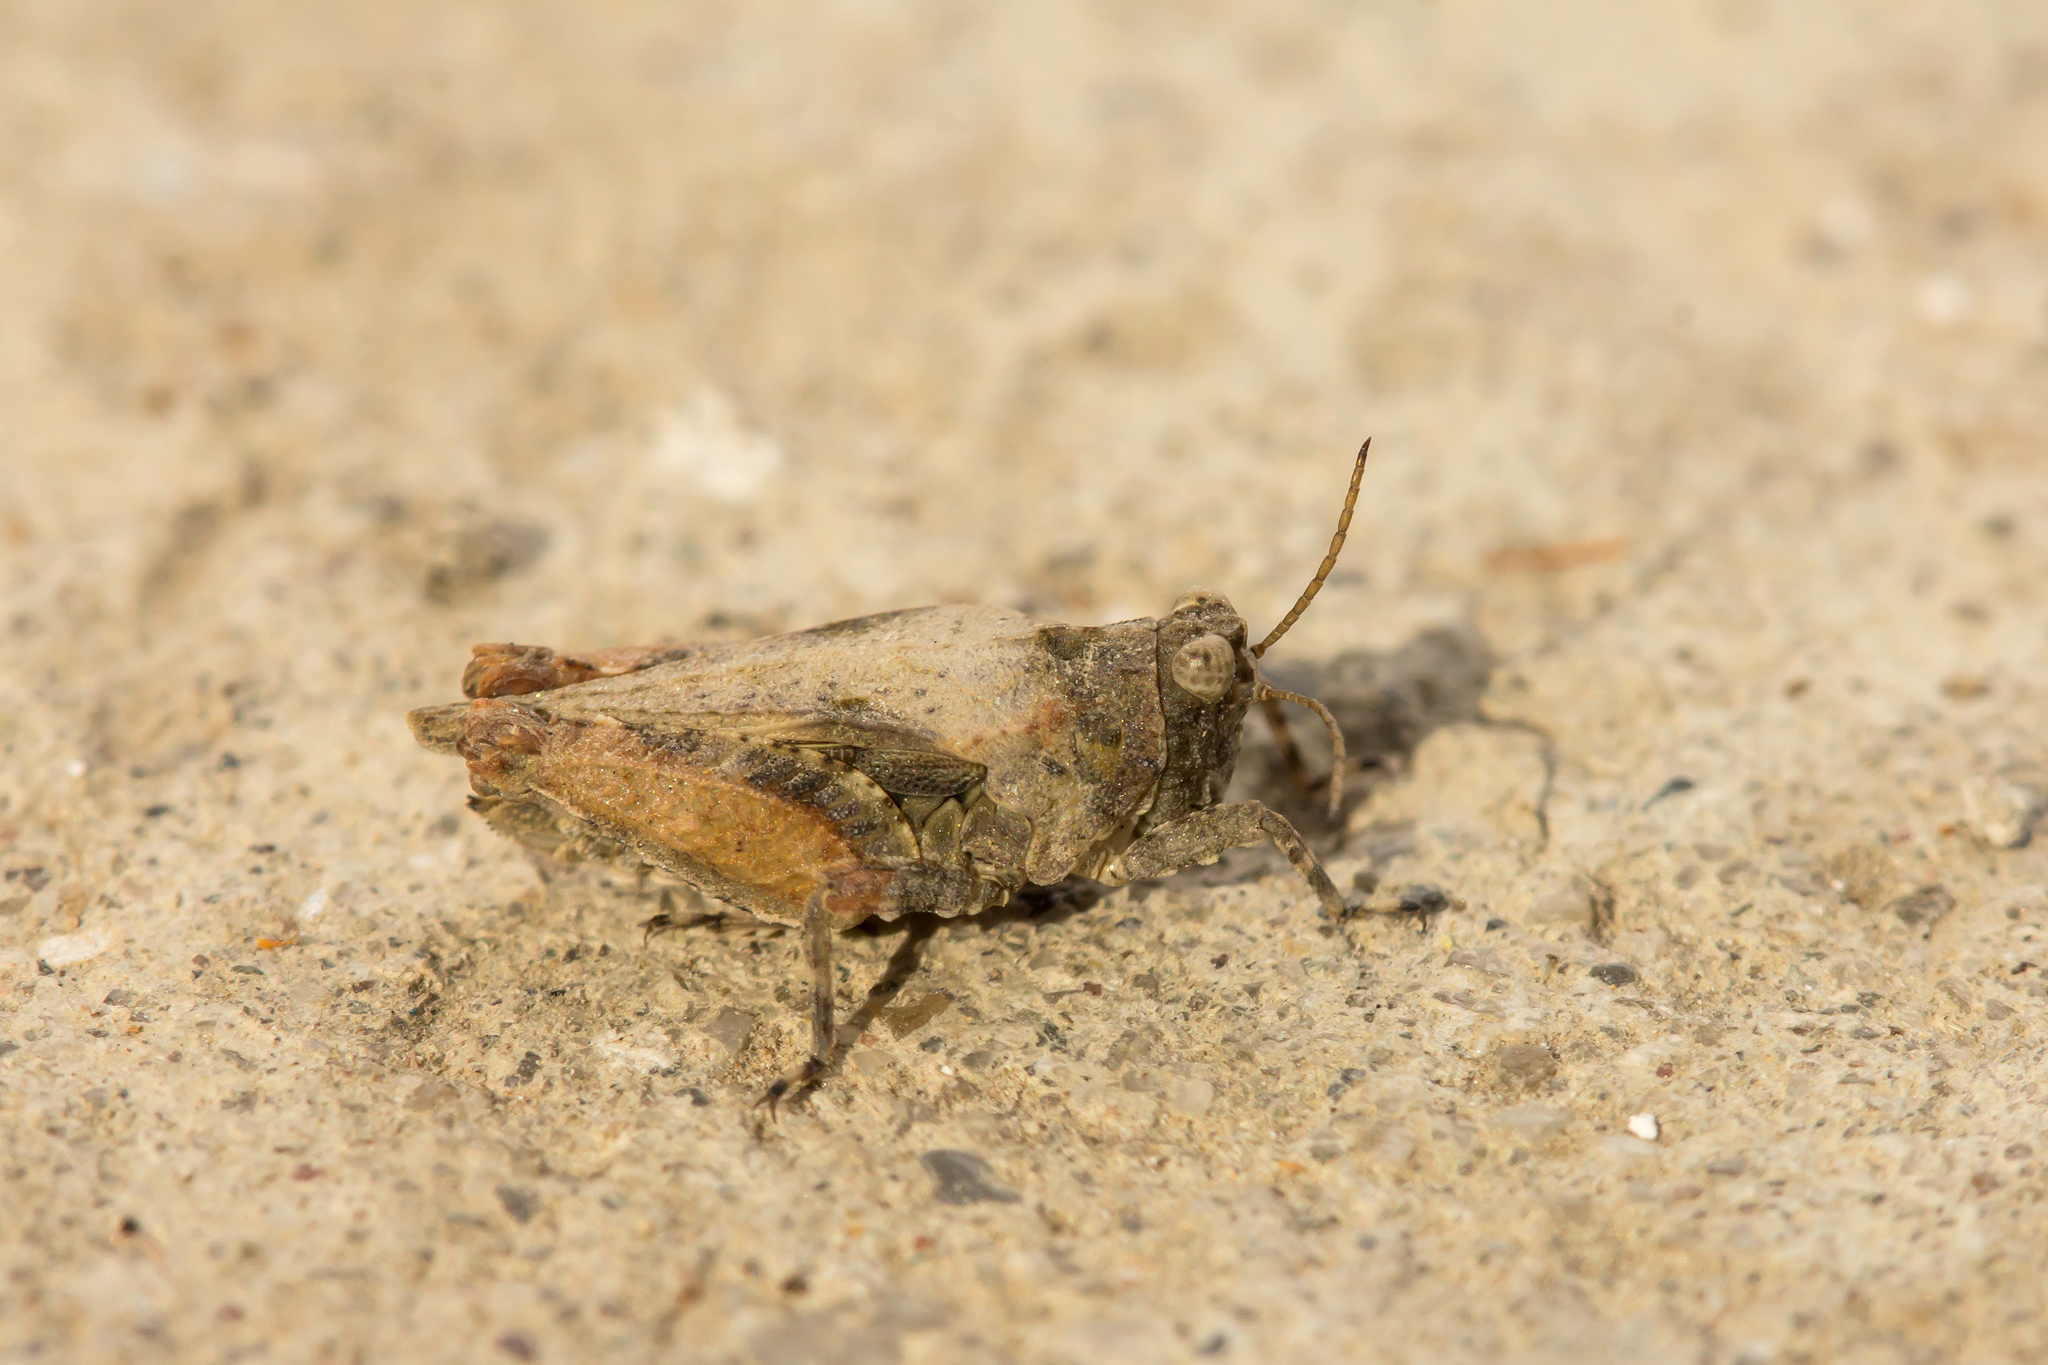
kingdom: Animalia
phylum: Arthropoda
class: Insecta
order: Orthoptera
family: Tetrigidae
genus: Tetrix
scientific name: Tetrix tuerki
